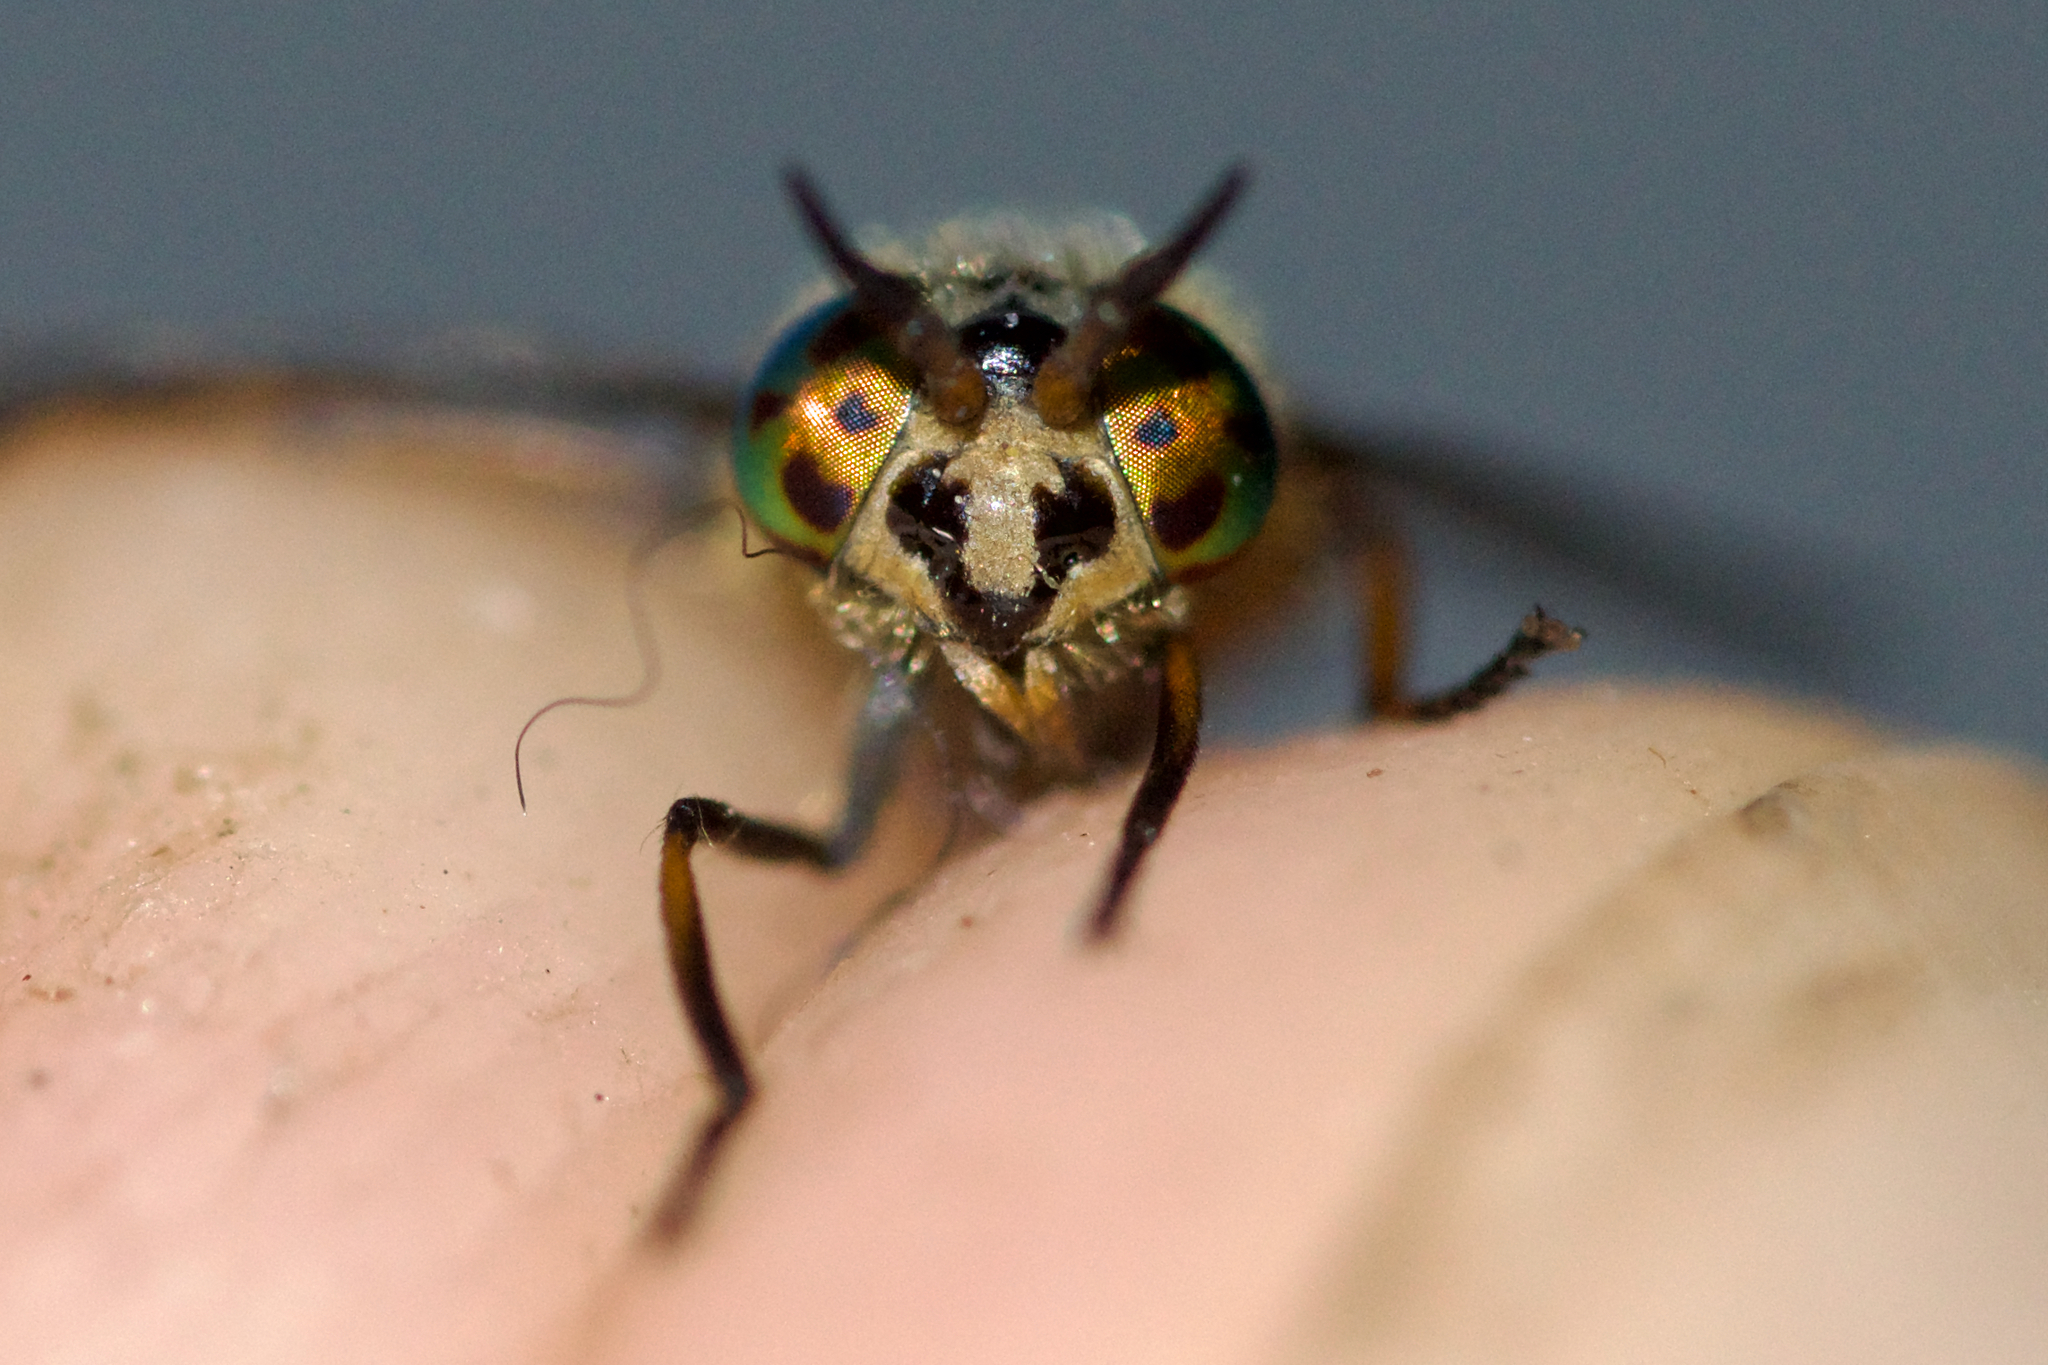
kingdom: Animalia
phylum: Arthropoda
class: Insecta
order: Diptera
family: Tabanidae
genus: Chrysops
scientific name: Chrysops frigidus
